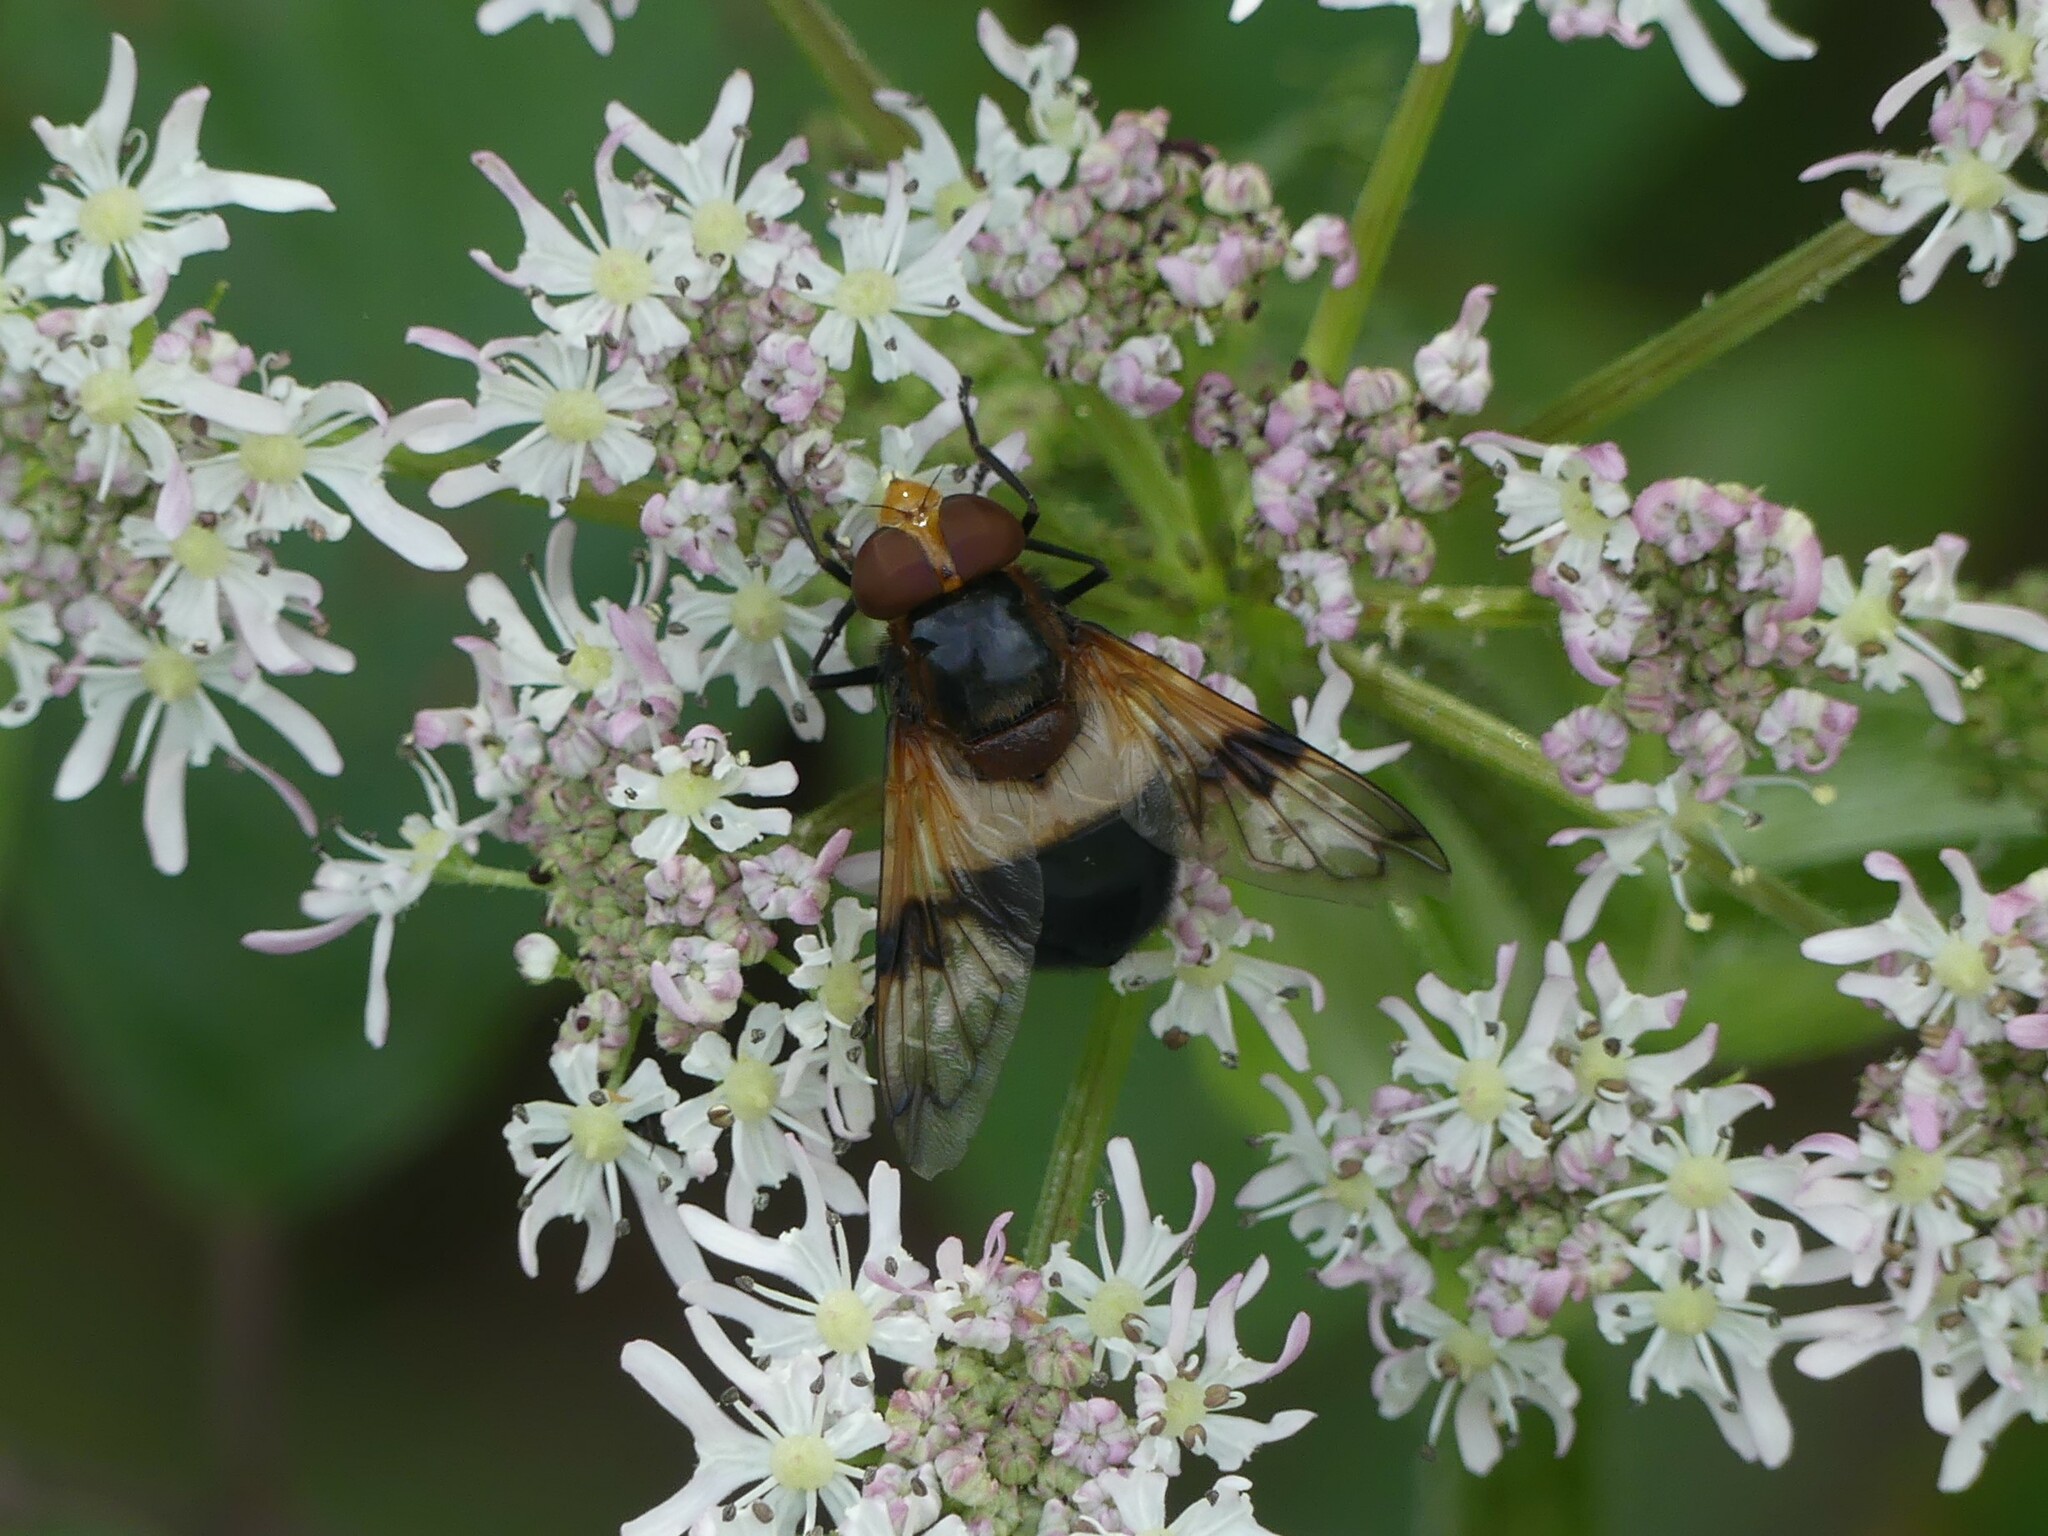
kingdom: Animalia
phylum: Arthropoda
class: Insecta
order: Diptera
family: Syrphidae
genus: Volucella
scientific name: Volucella pellucens
